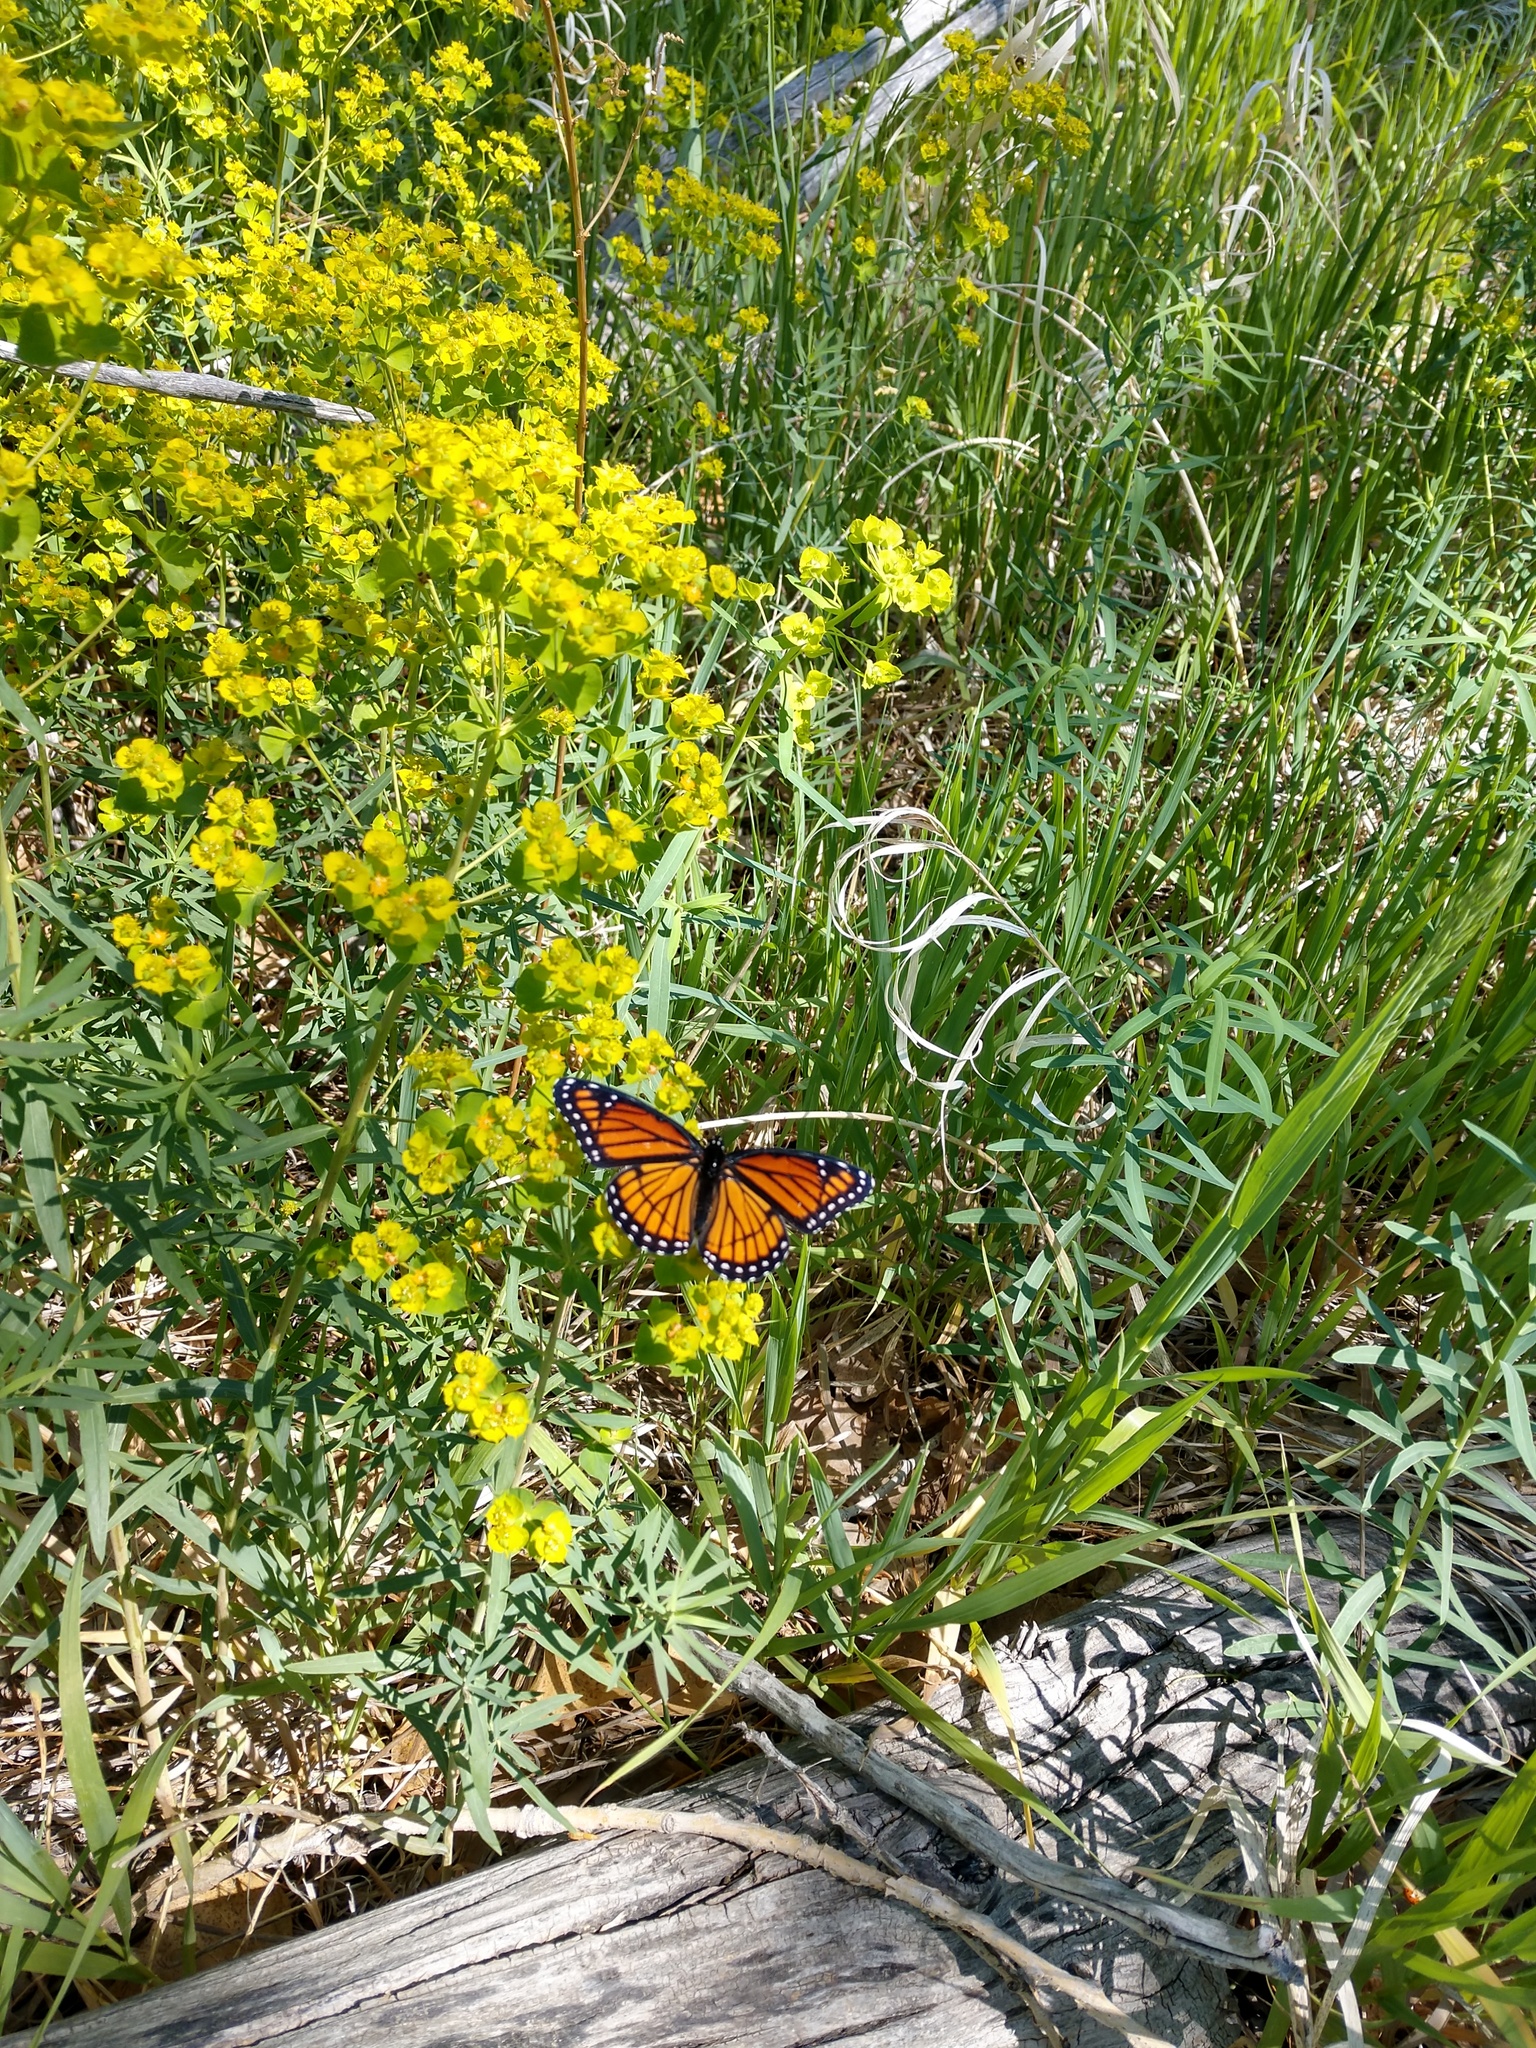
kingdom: Animalia
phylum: Arthropoda
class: Insecta
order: Lepidoptera
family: Nymphalidae
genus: Limenitis
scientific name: Limenitis archippus
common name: Viceroy
